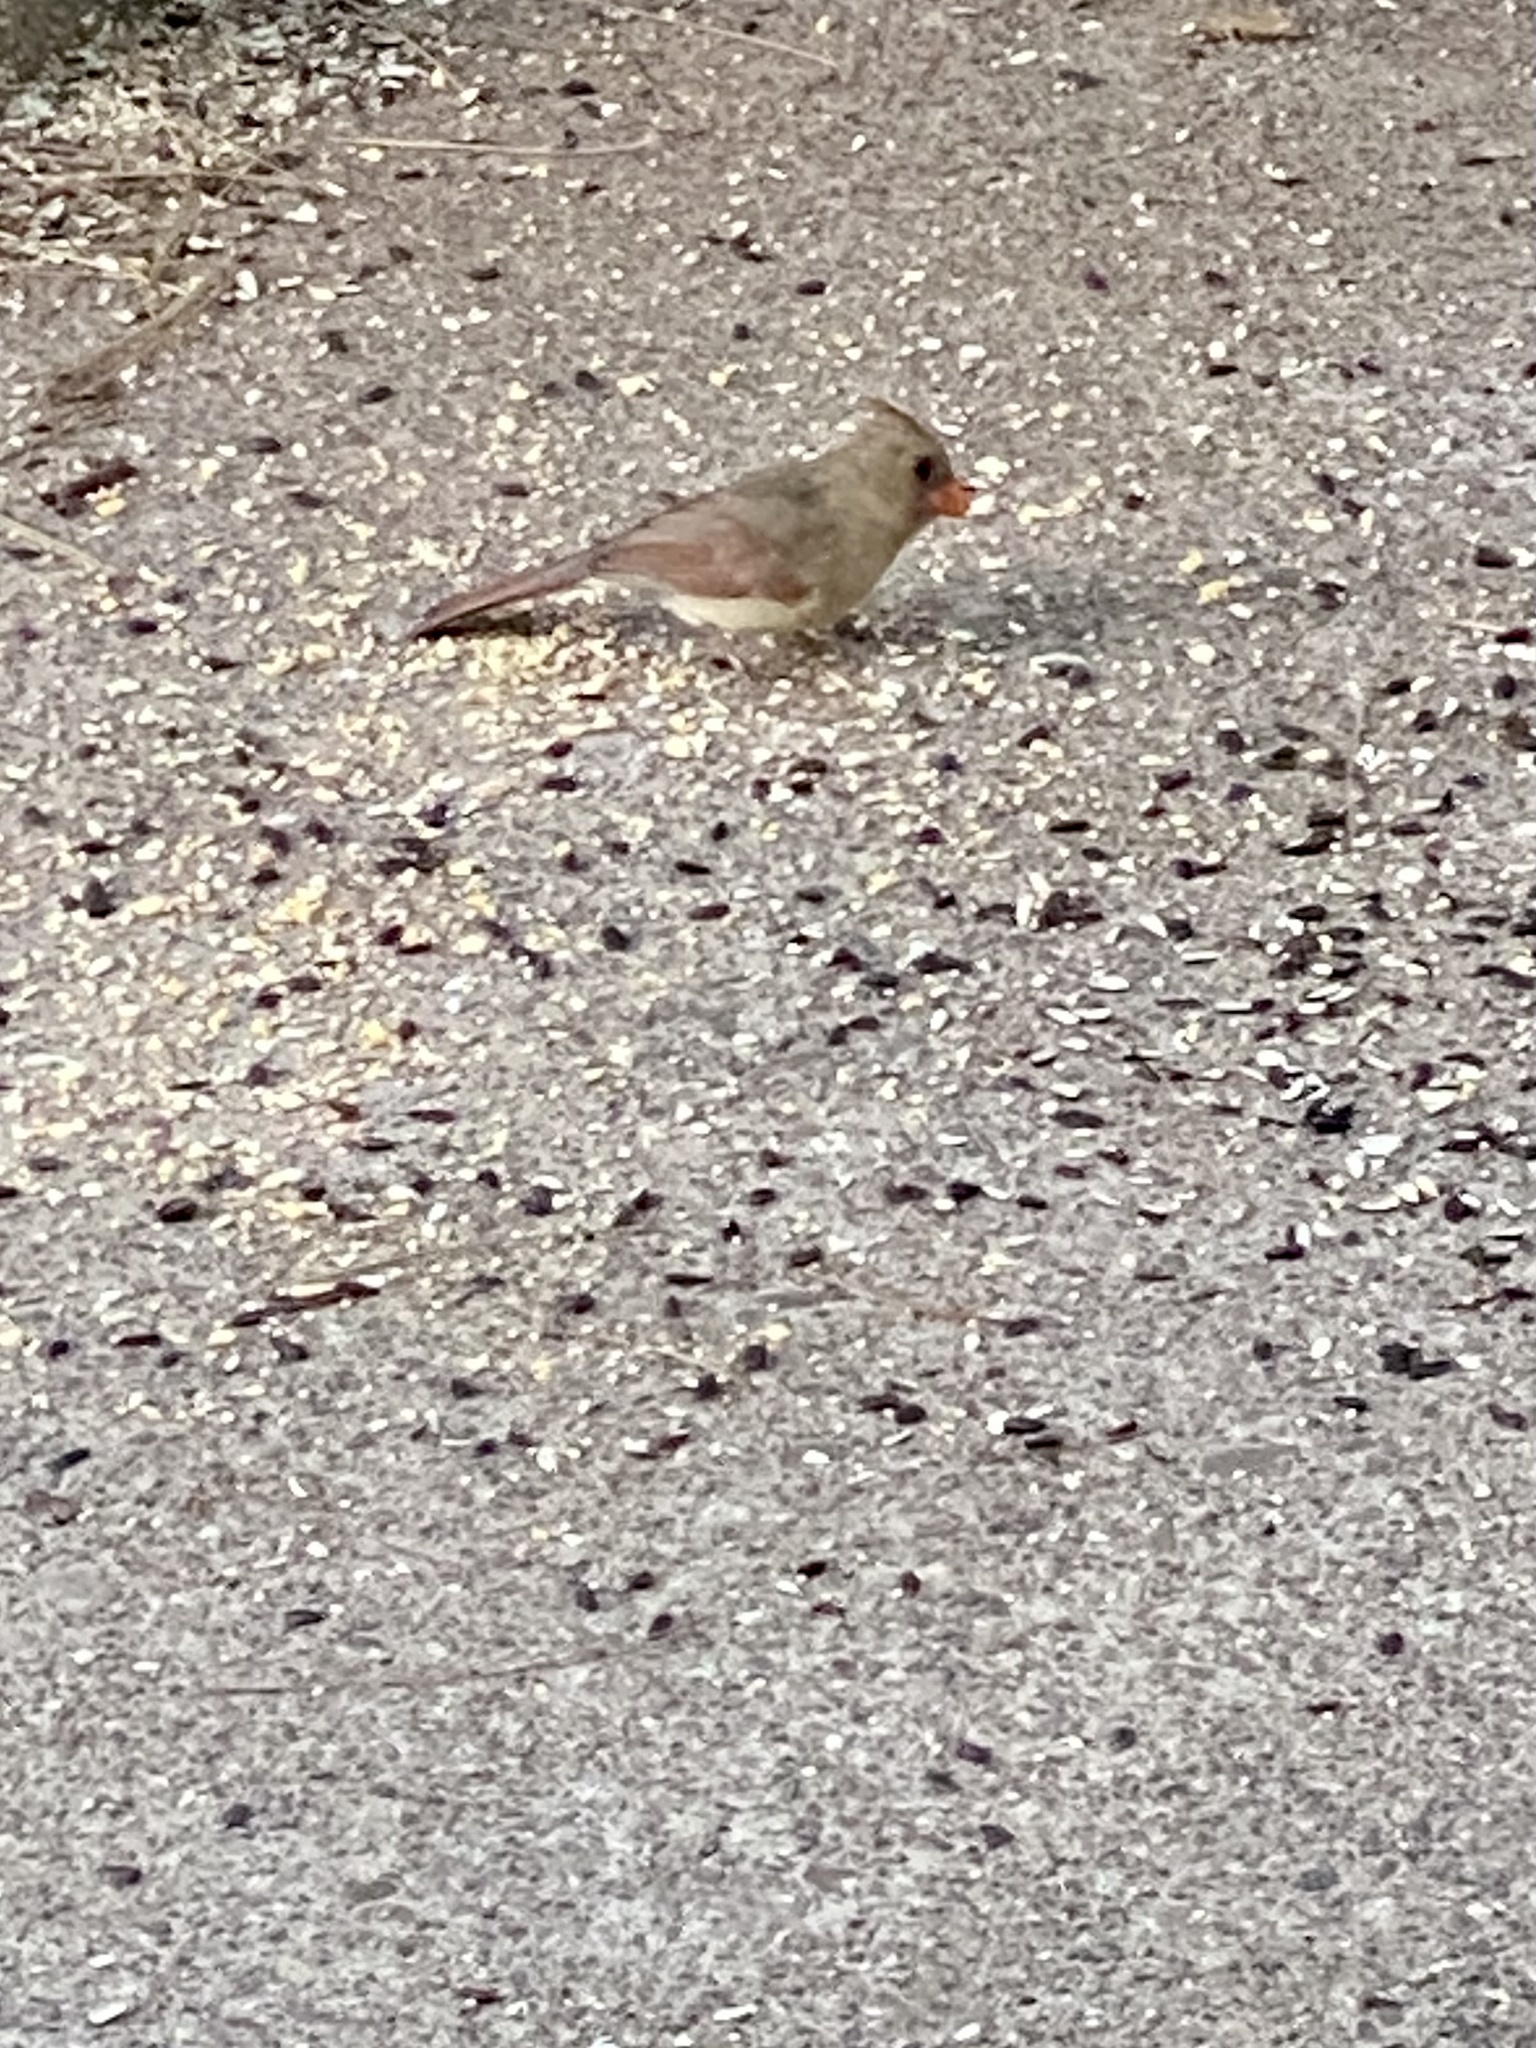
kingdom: Animalia
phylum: Chordata
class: Aves
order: Passeriformes
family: Cardinalidae
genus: Cardinalis
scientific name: Cardinalis cardinalis
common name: Northern cardinal
